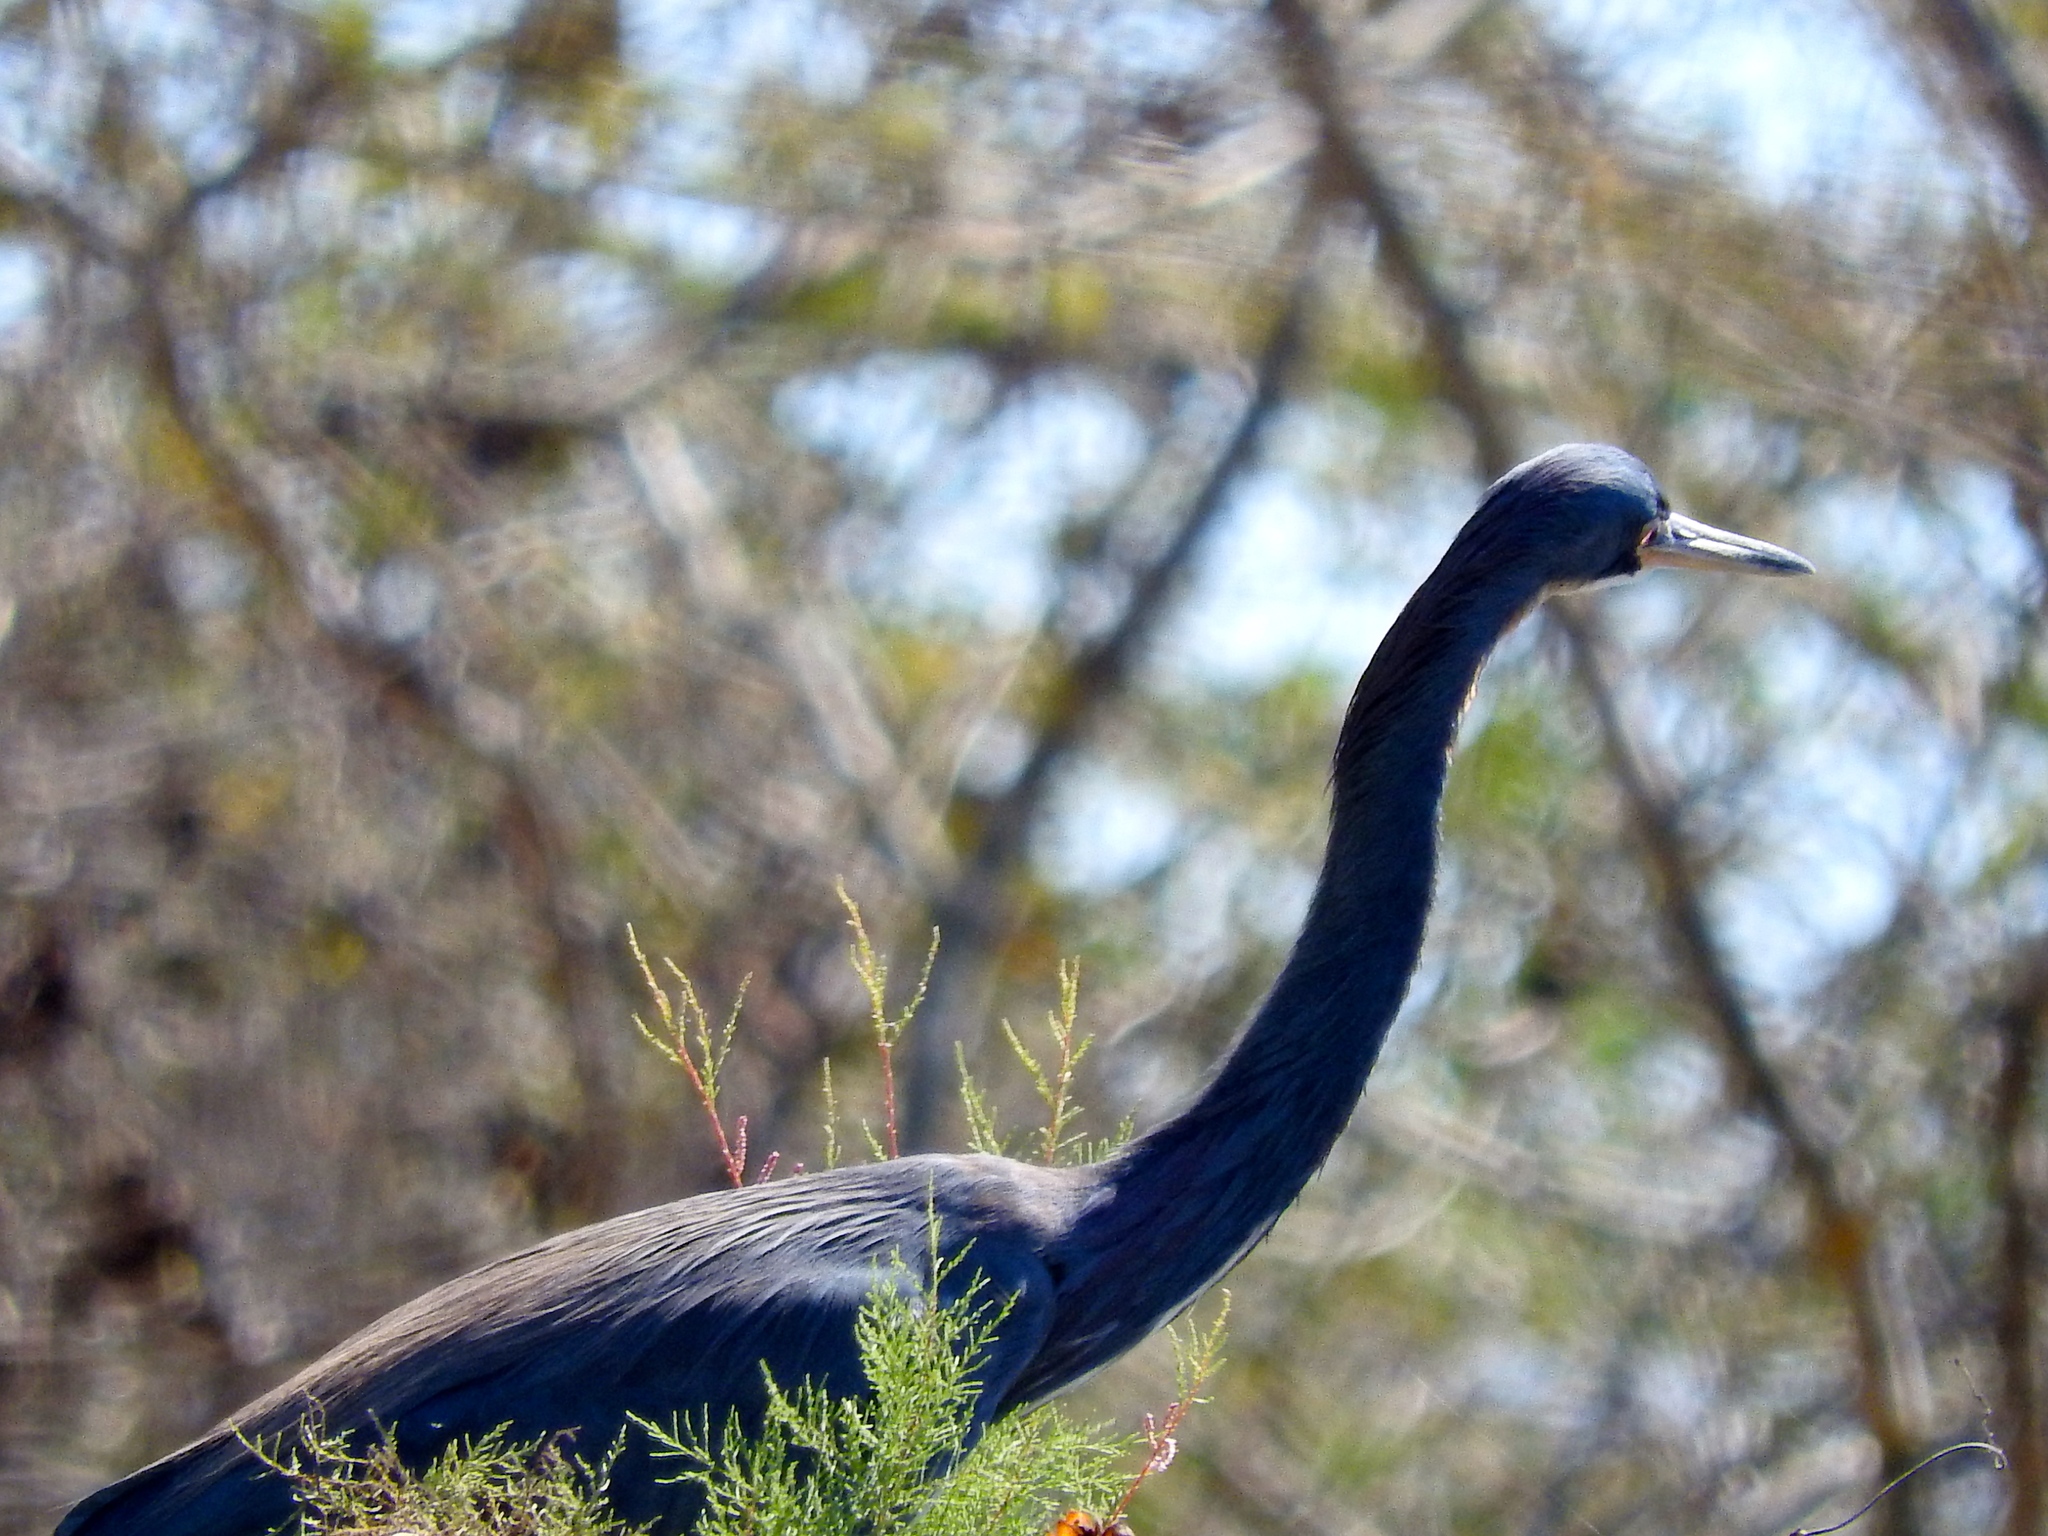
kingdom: Animalia
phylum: Chordata
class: Aves
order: Pelecaniformes
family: Ardeidae
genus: Egretta
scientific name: Egretta tricolor
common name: Tricolored heron
